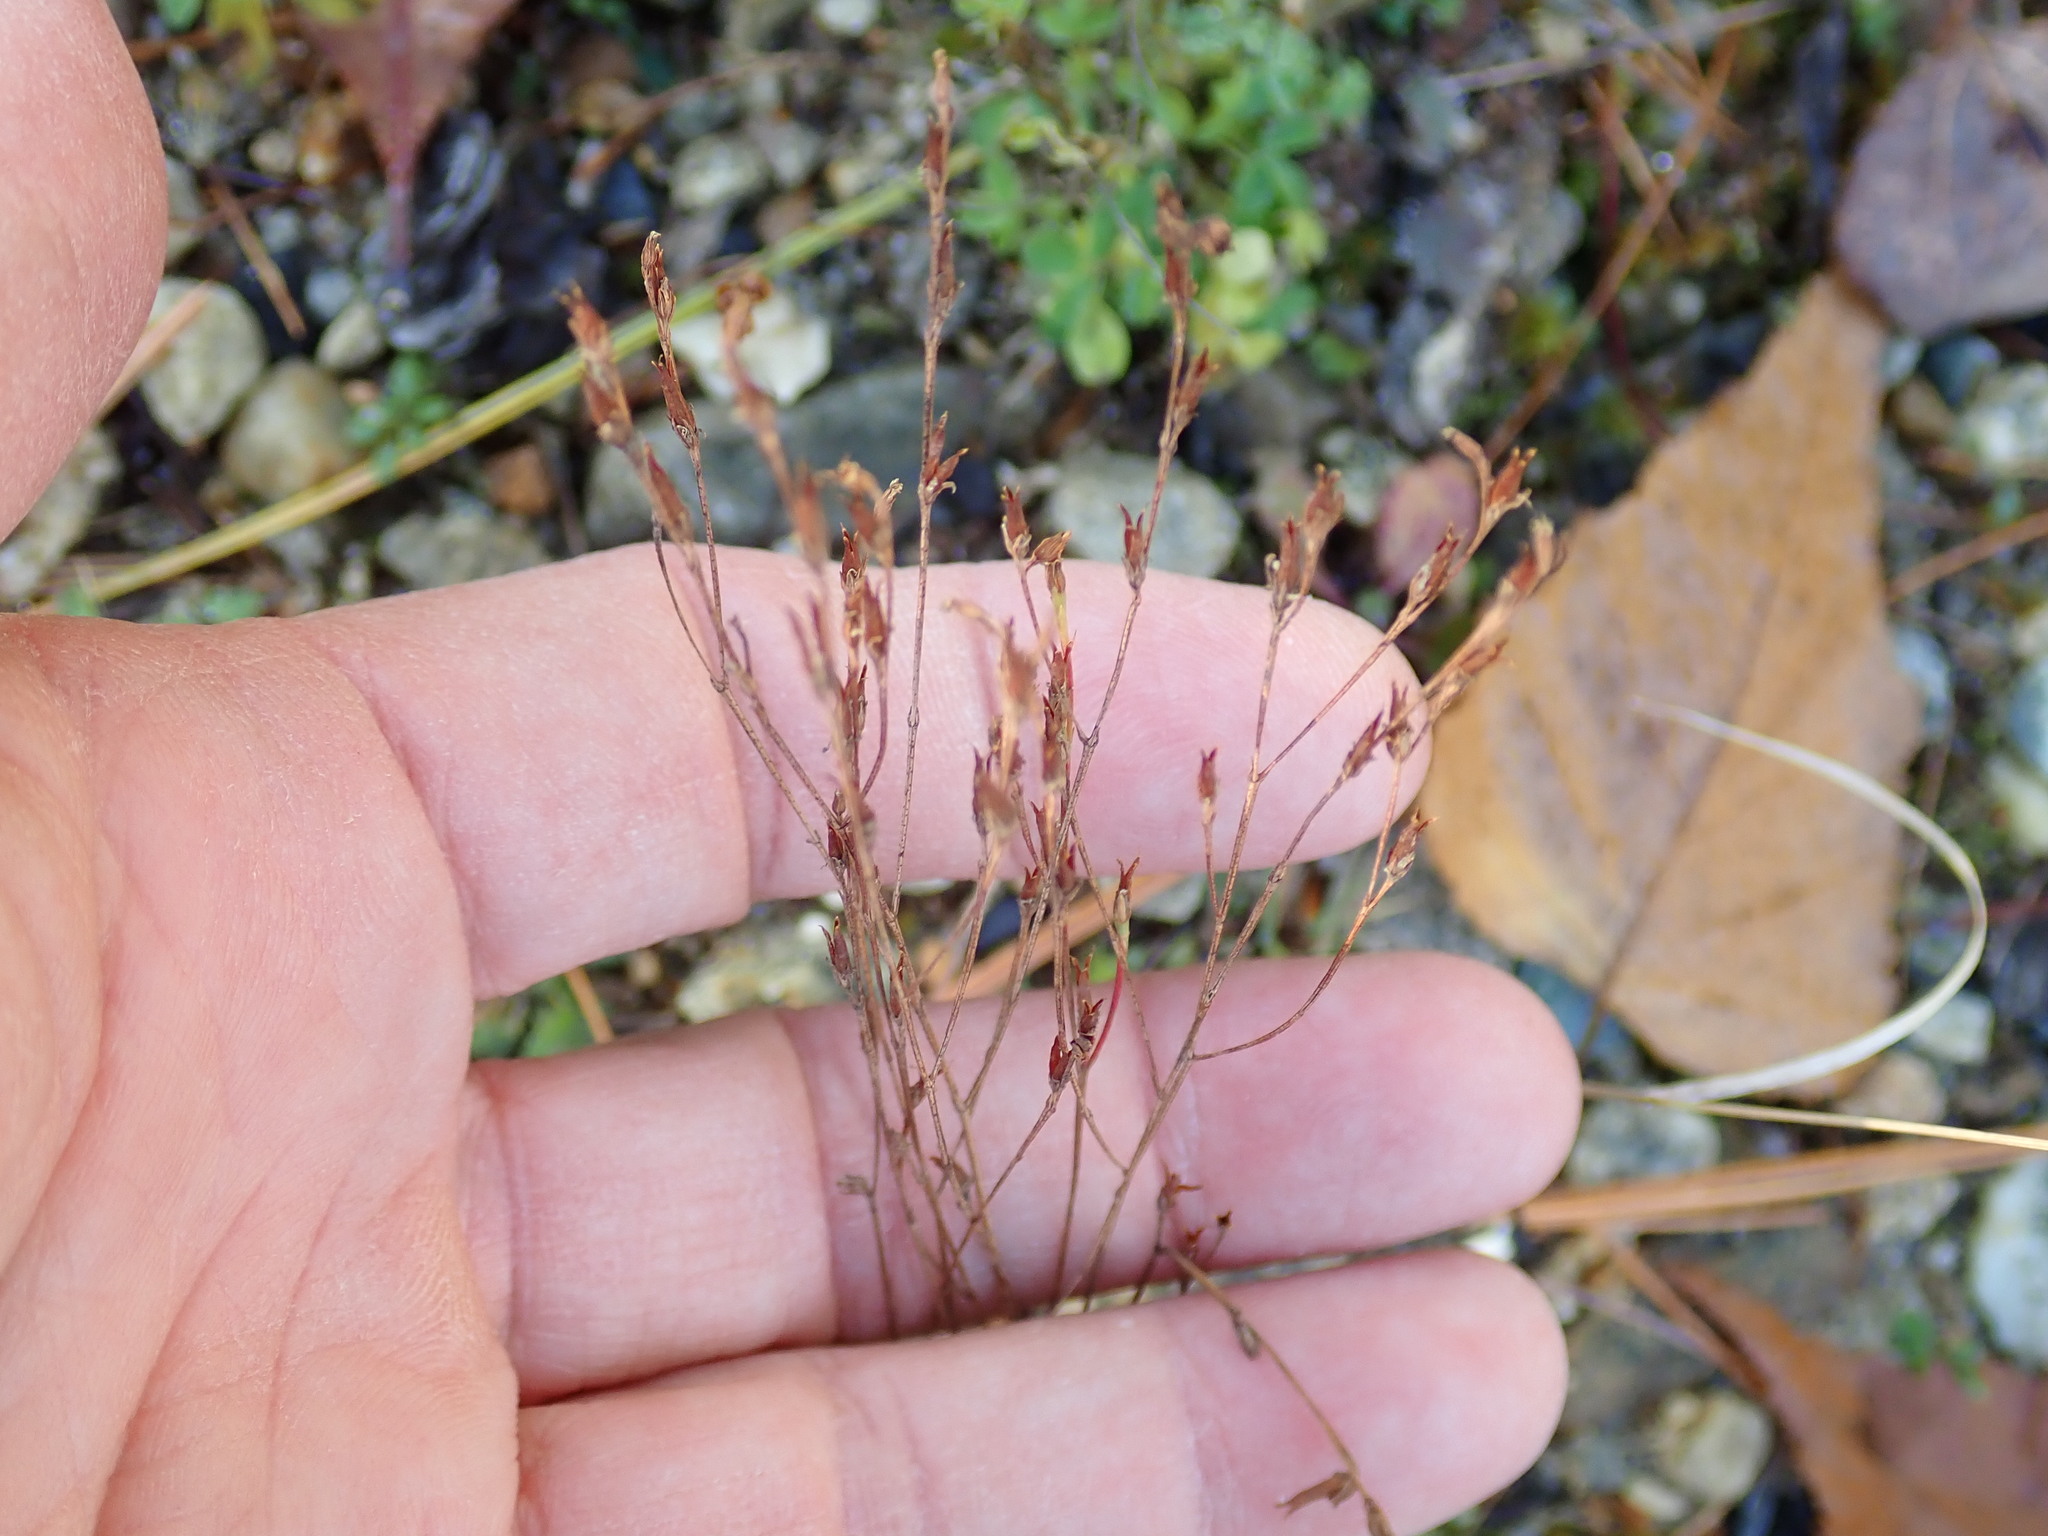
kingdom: Plantae
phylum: Tracheophyta
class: Magnoliopsida
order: Malpighiales
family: Hypericaceae
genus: Hypericum
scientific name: Hypericum gentianoides
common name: Gentian-leaved st. john's-wort
